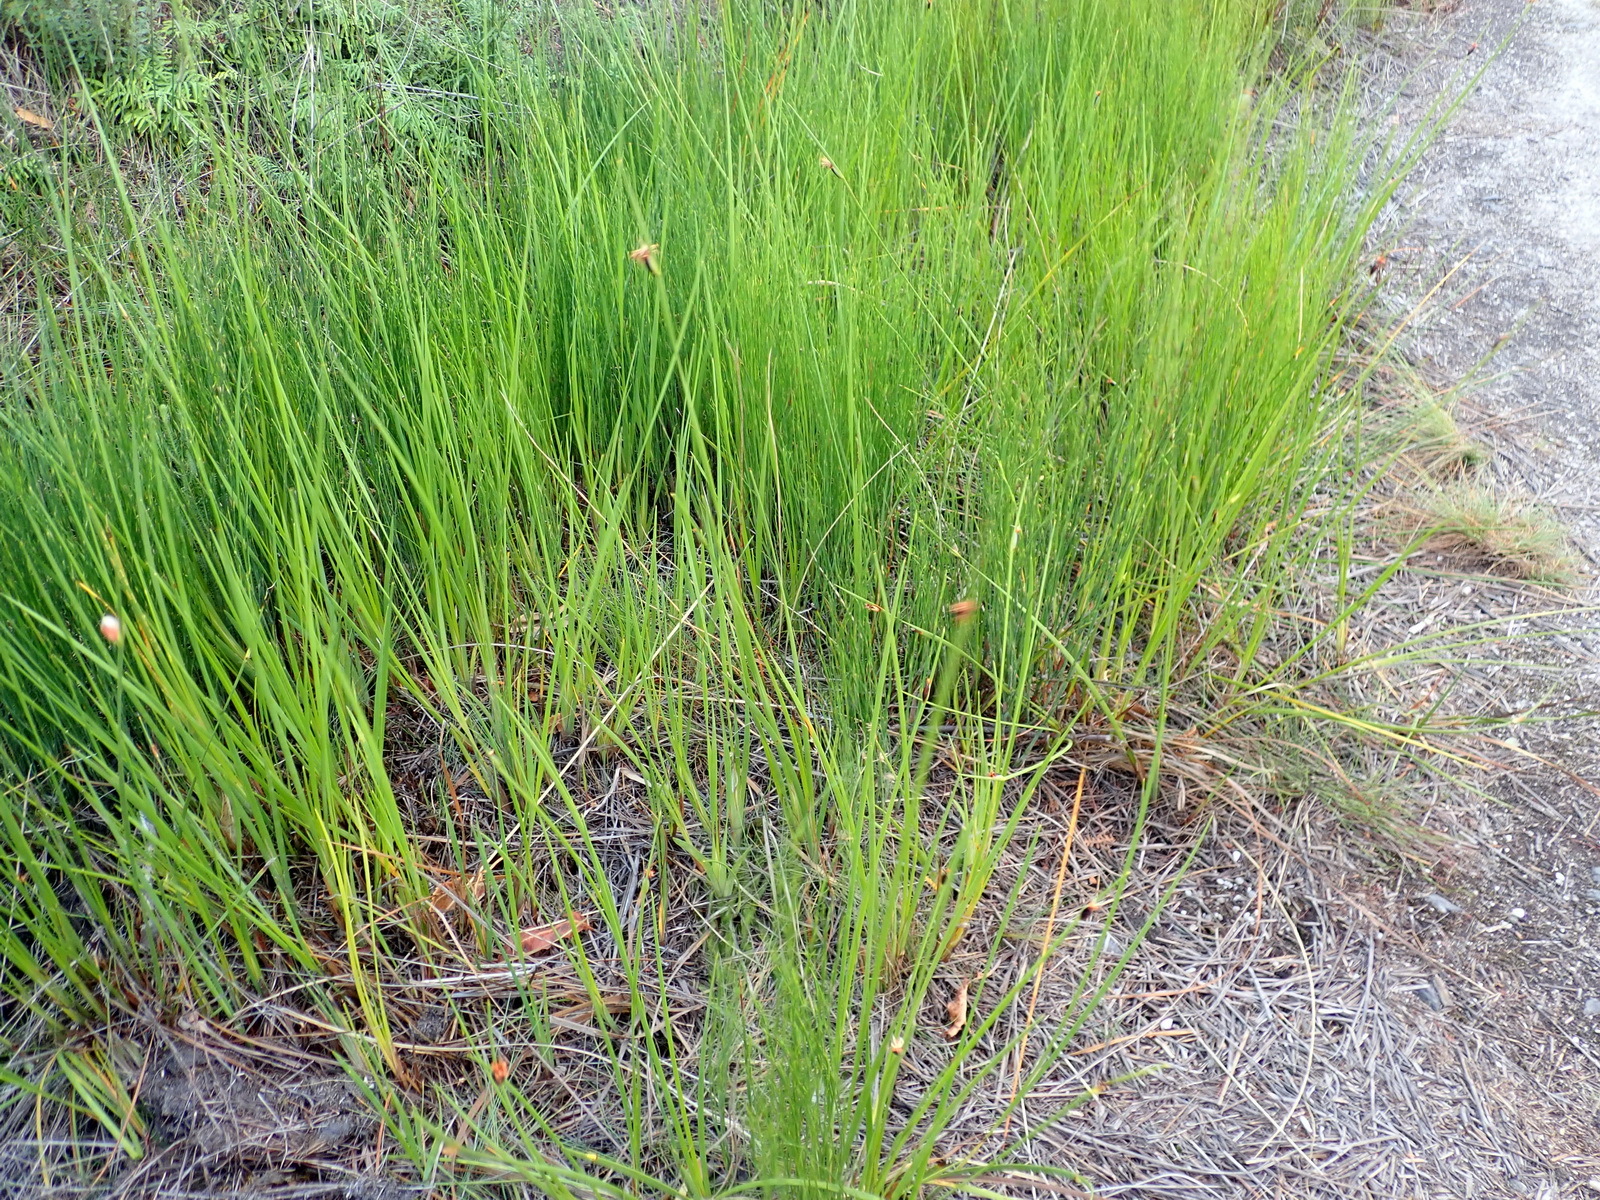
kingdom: Plantae
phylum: Tracheophyta
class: Liliopsida
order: Poales
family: Cyperaceae
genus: Chrysitrix
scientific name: Chrysitrix capensis
